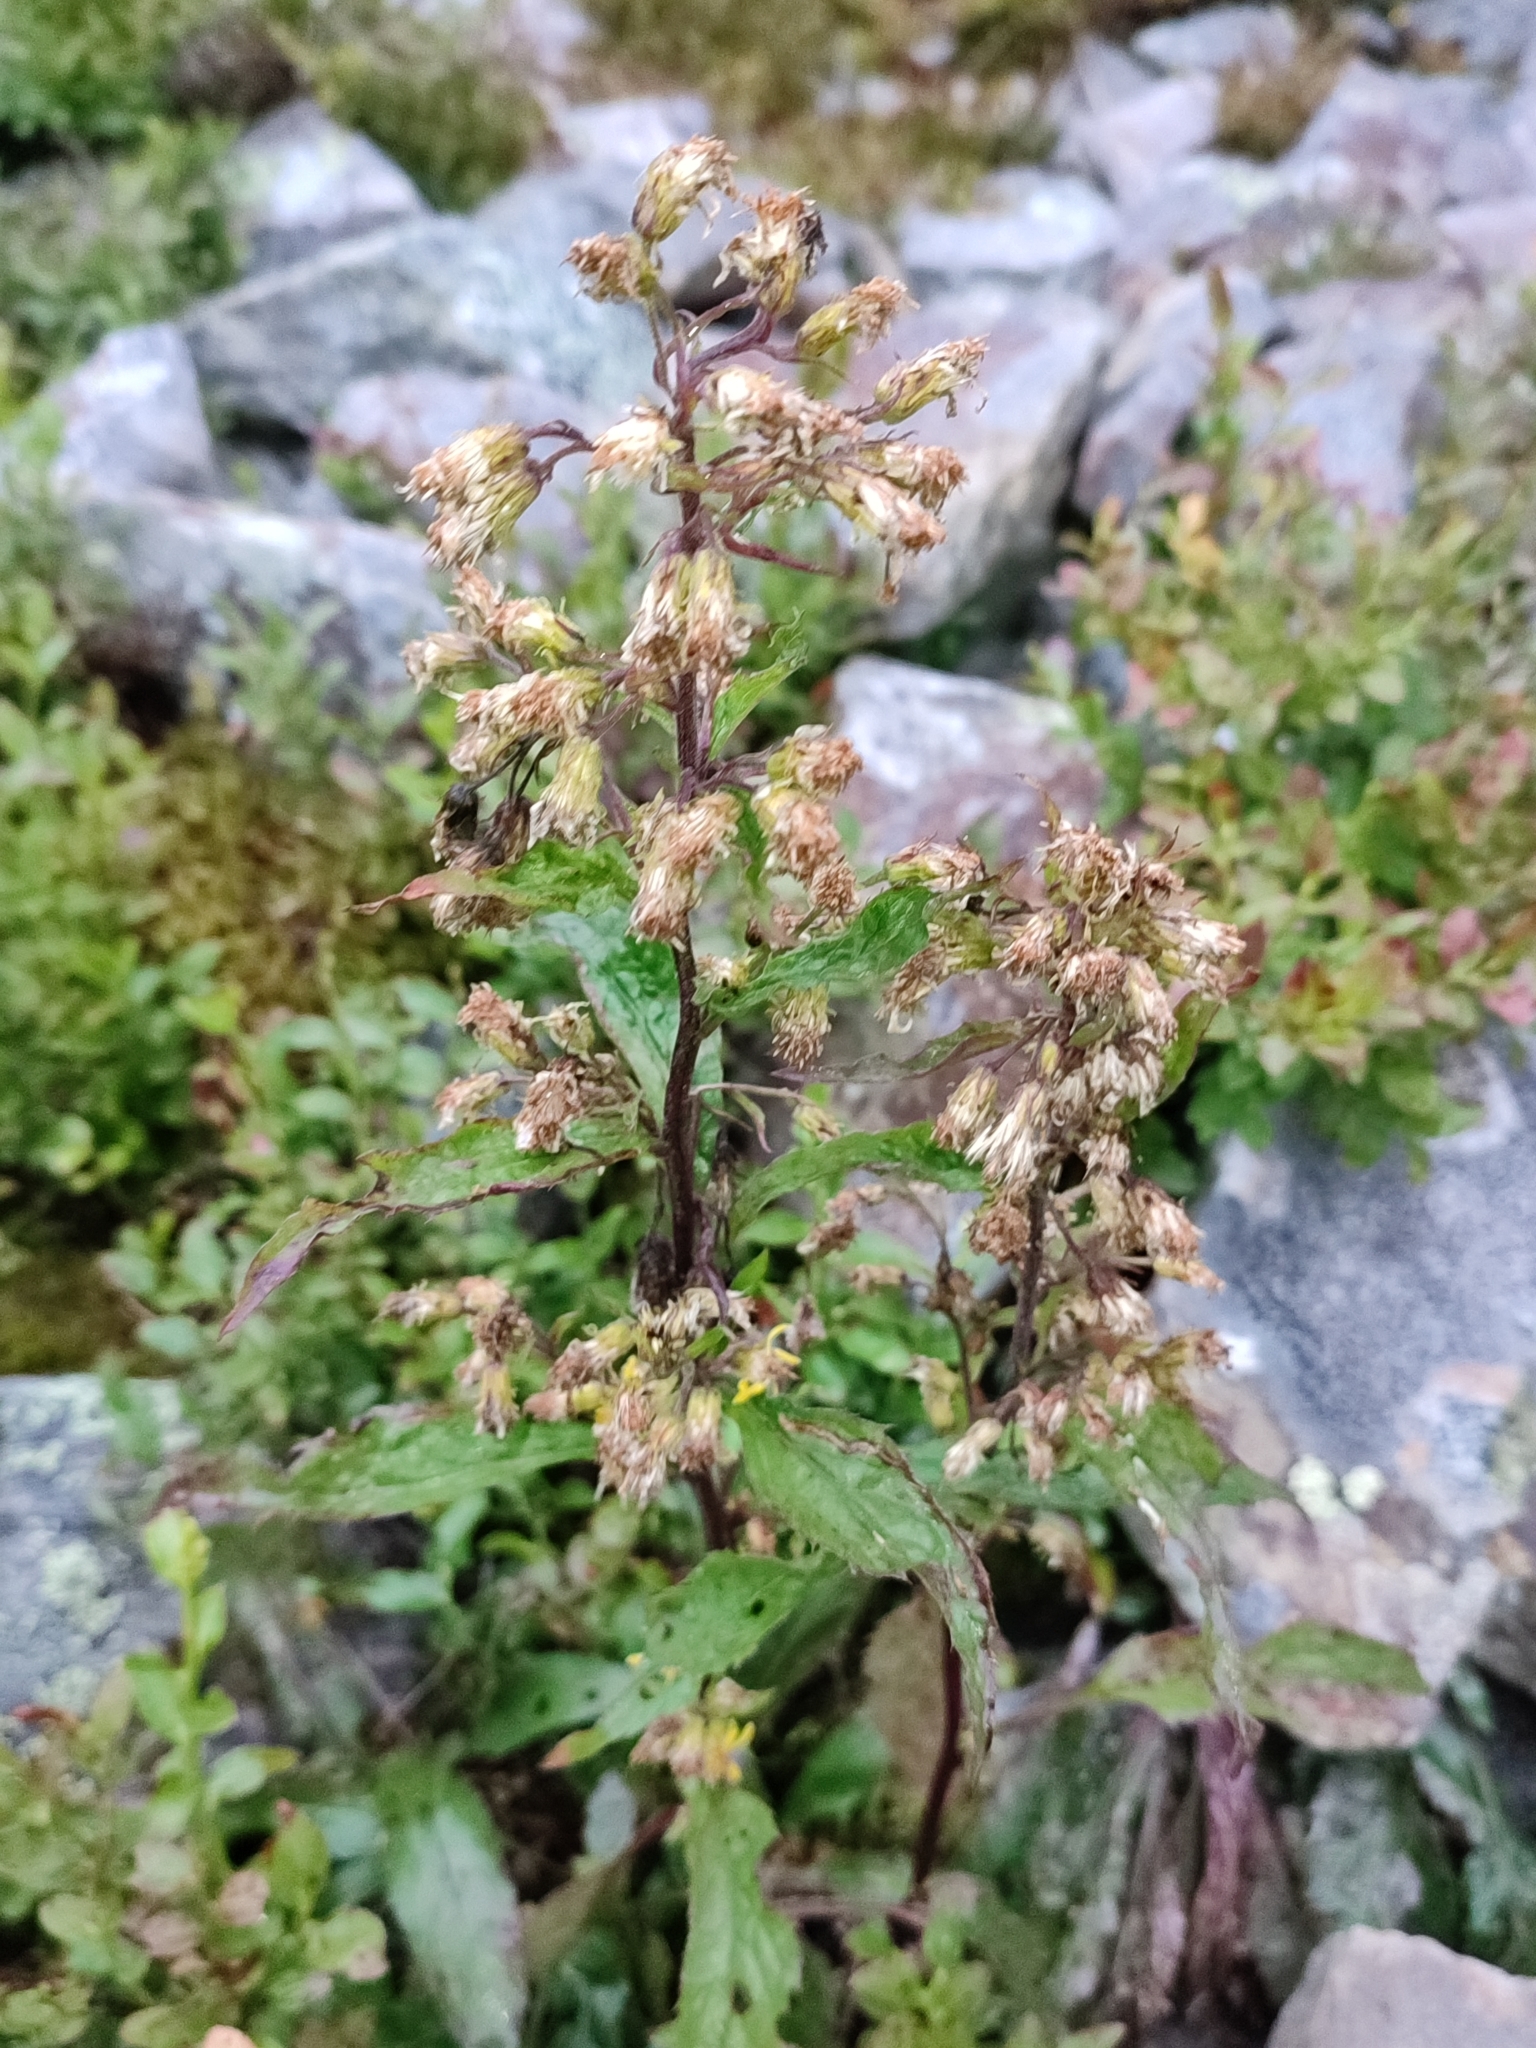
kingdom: Plantae
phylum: Tracheophyta
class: Magnoliopsida
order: Asterales
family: Asteraceae
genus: Solidago
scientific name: Solidago virgaurea
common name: Goldenrod
